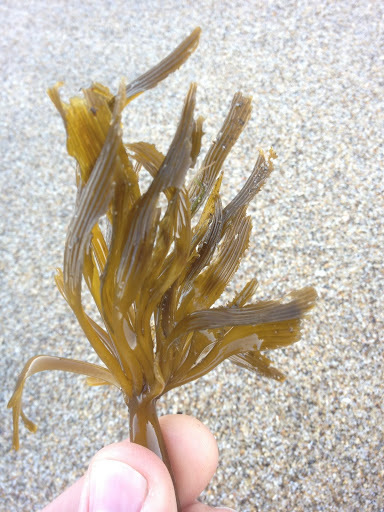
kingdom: Chromista
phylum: Ochrophyta
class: Phaeophyceae
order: Laminariales
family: Laminariaceae
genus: Postelsia
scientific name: Postelsia palmiformis
